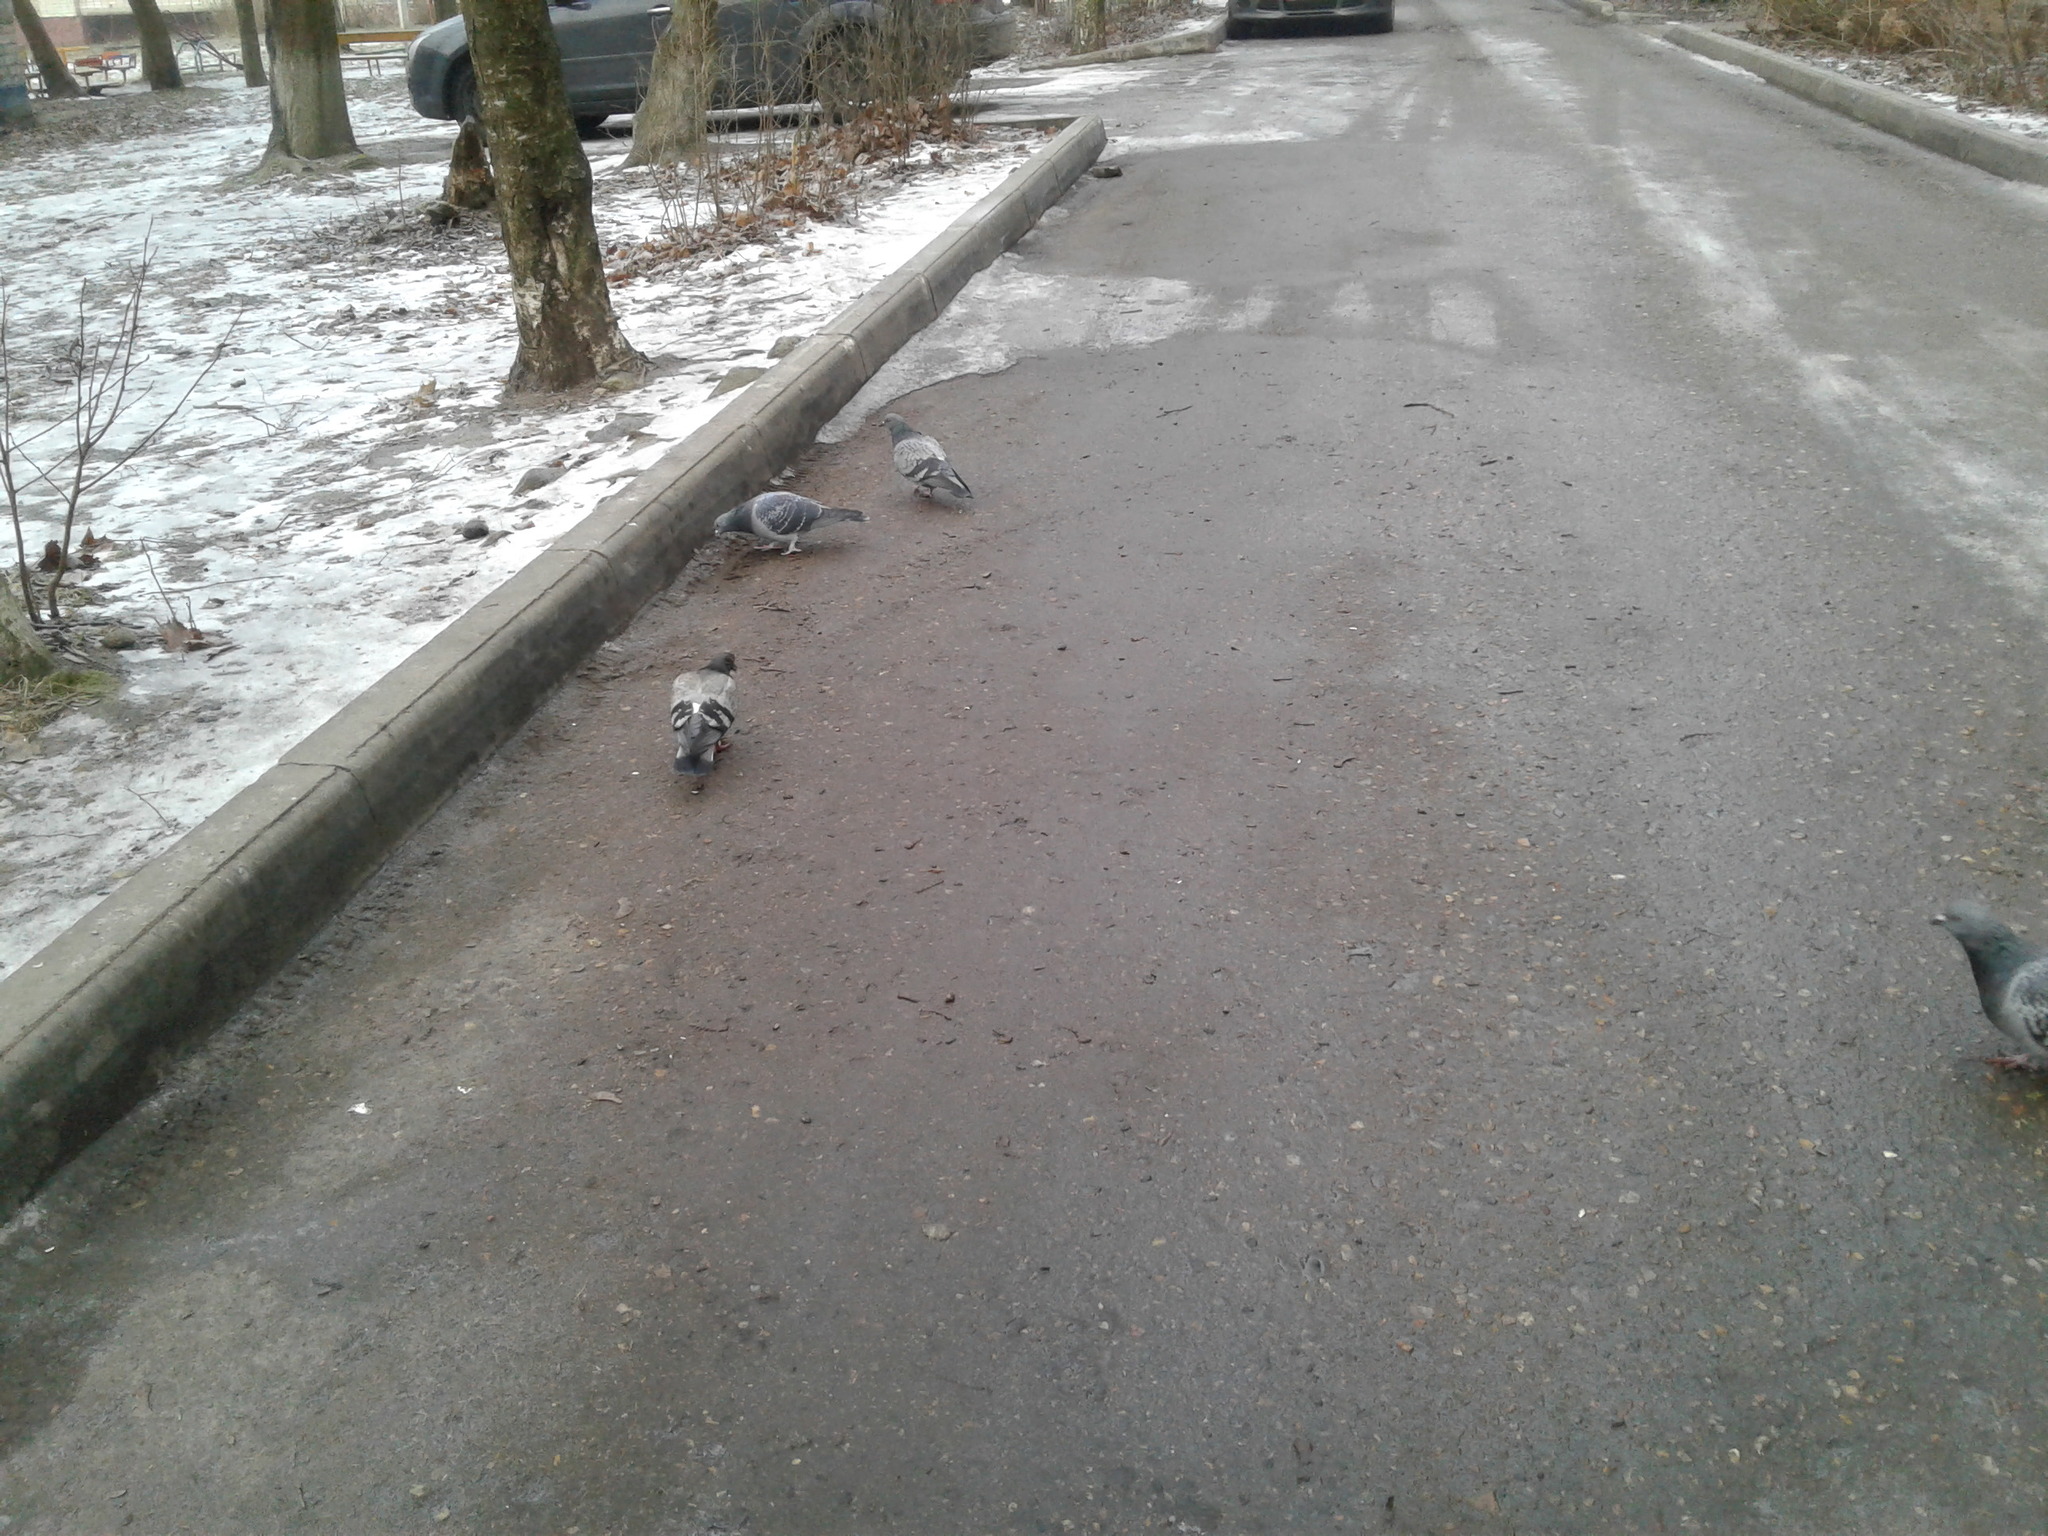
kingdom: Animalia
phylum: Chordata
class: Aves
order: Columbiformes
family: Columbidae
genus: Columba
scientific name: Columba livia
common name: Rock pigeon
